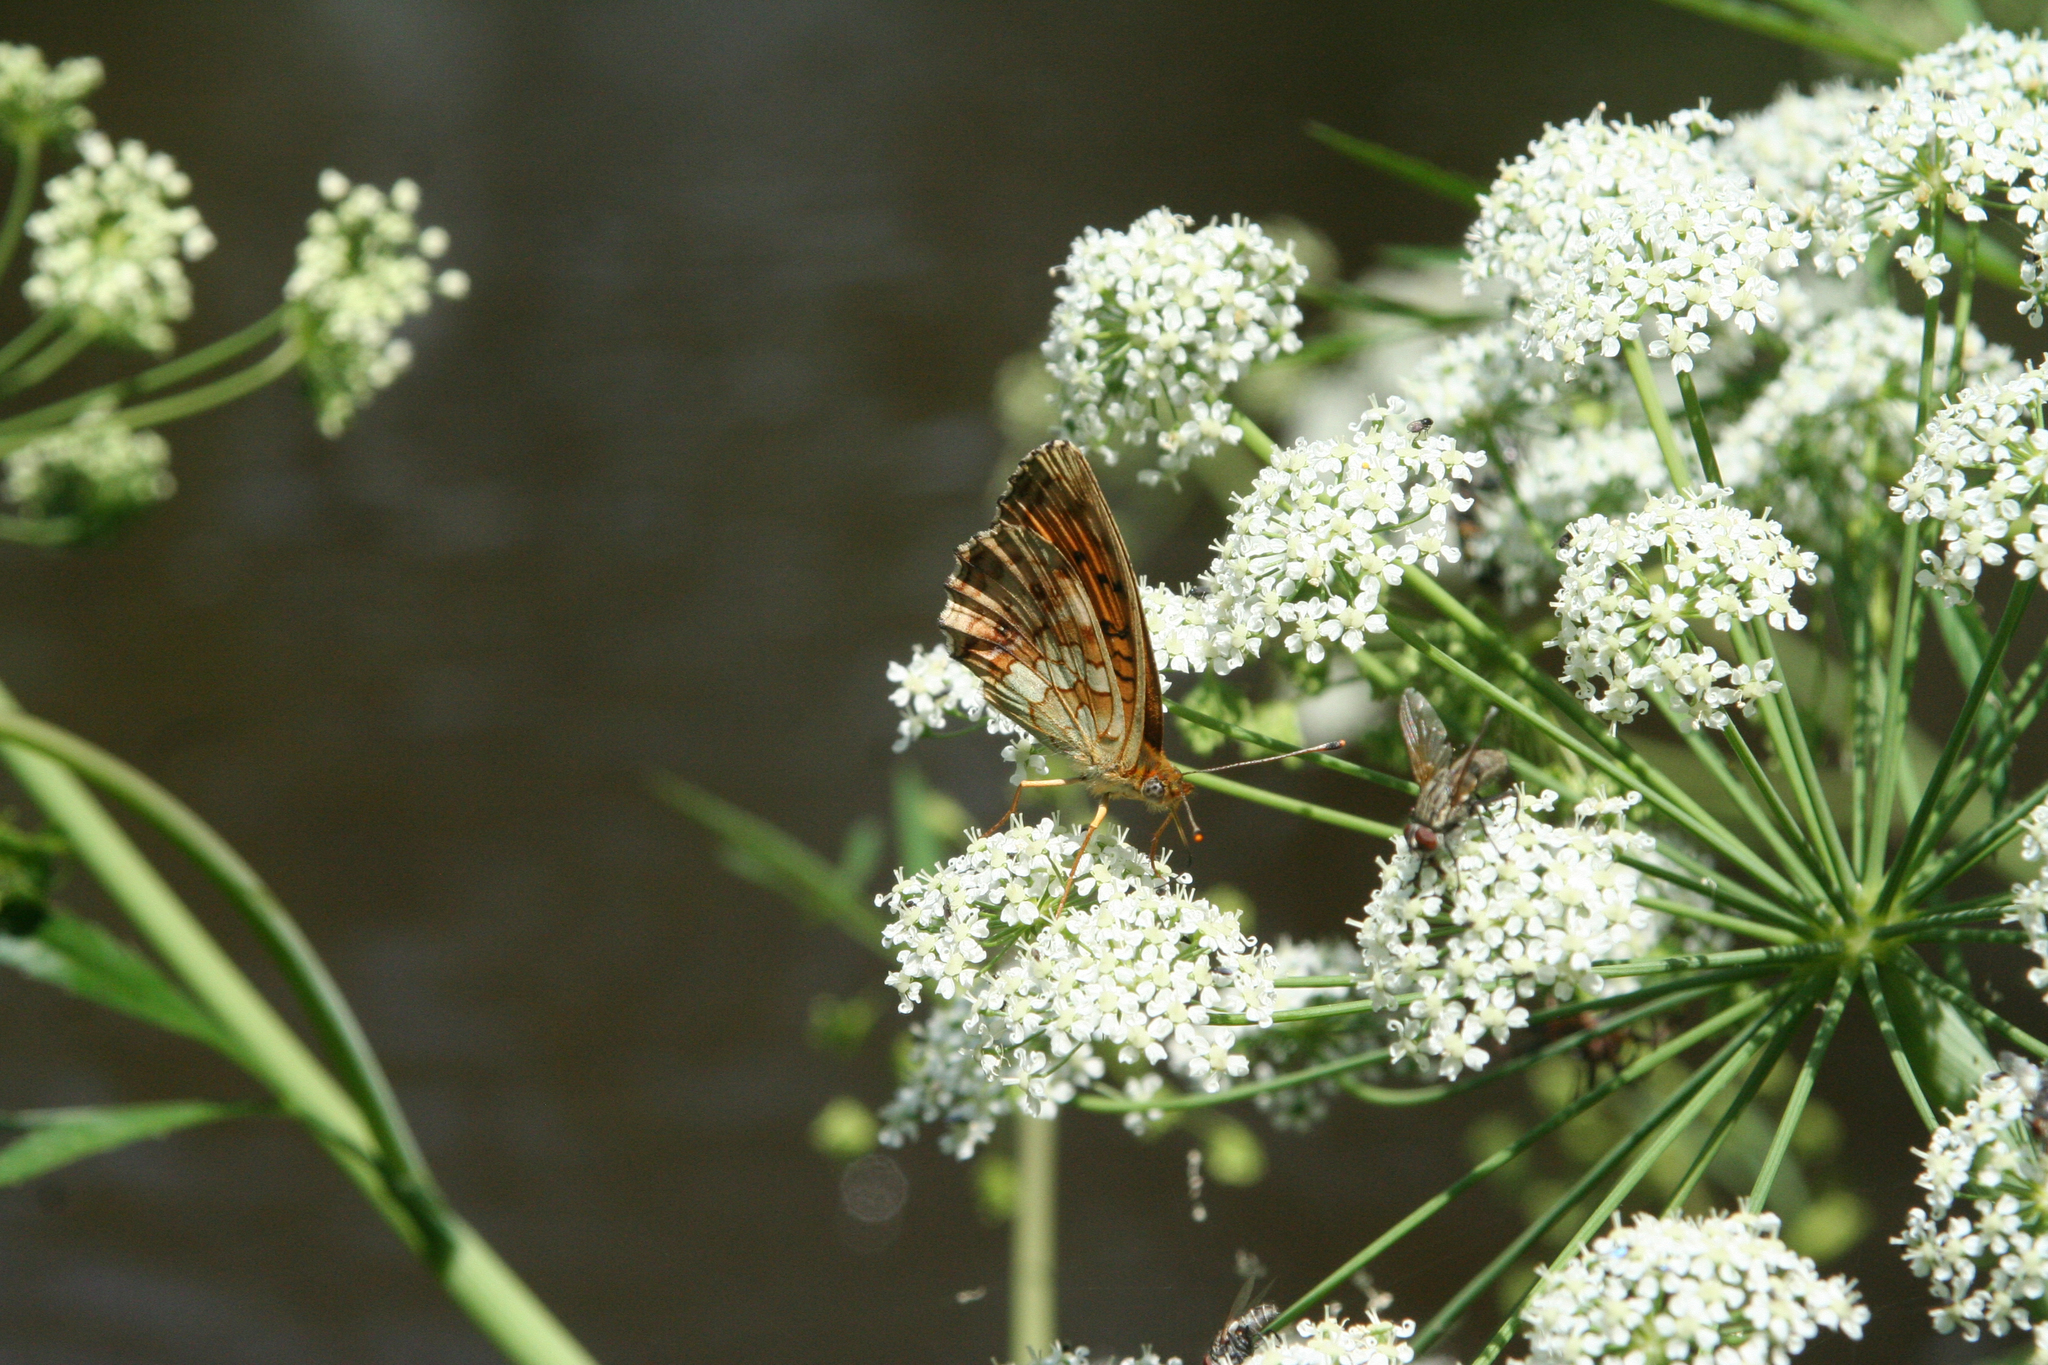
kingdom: Plantae
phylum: Tracheophyta
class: Magnoliopsida
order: Apiales
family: Apiaceae
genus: Cicuta
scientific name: Cicuta virosa
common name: Cowbane
